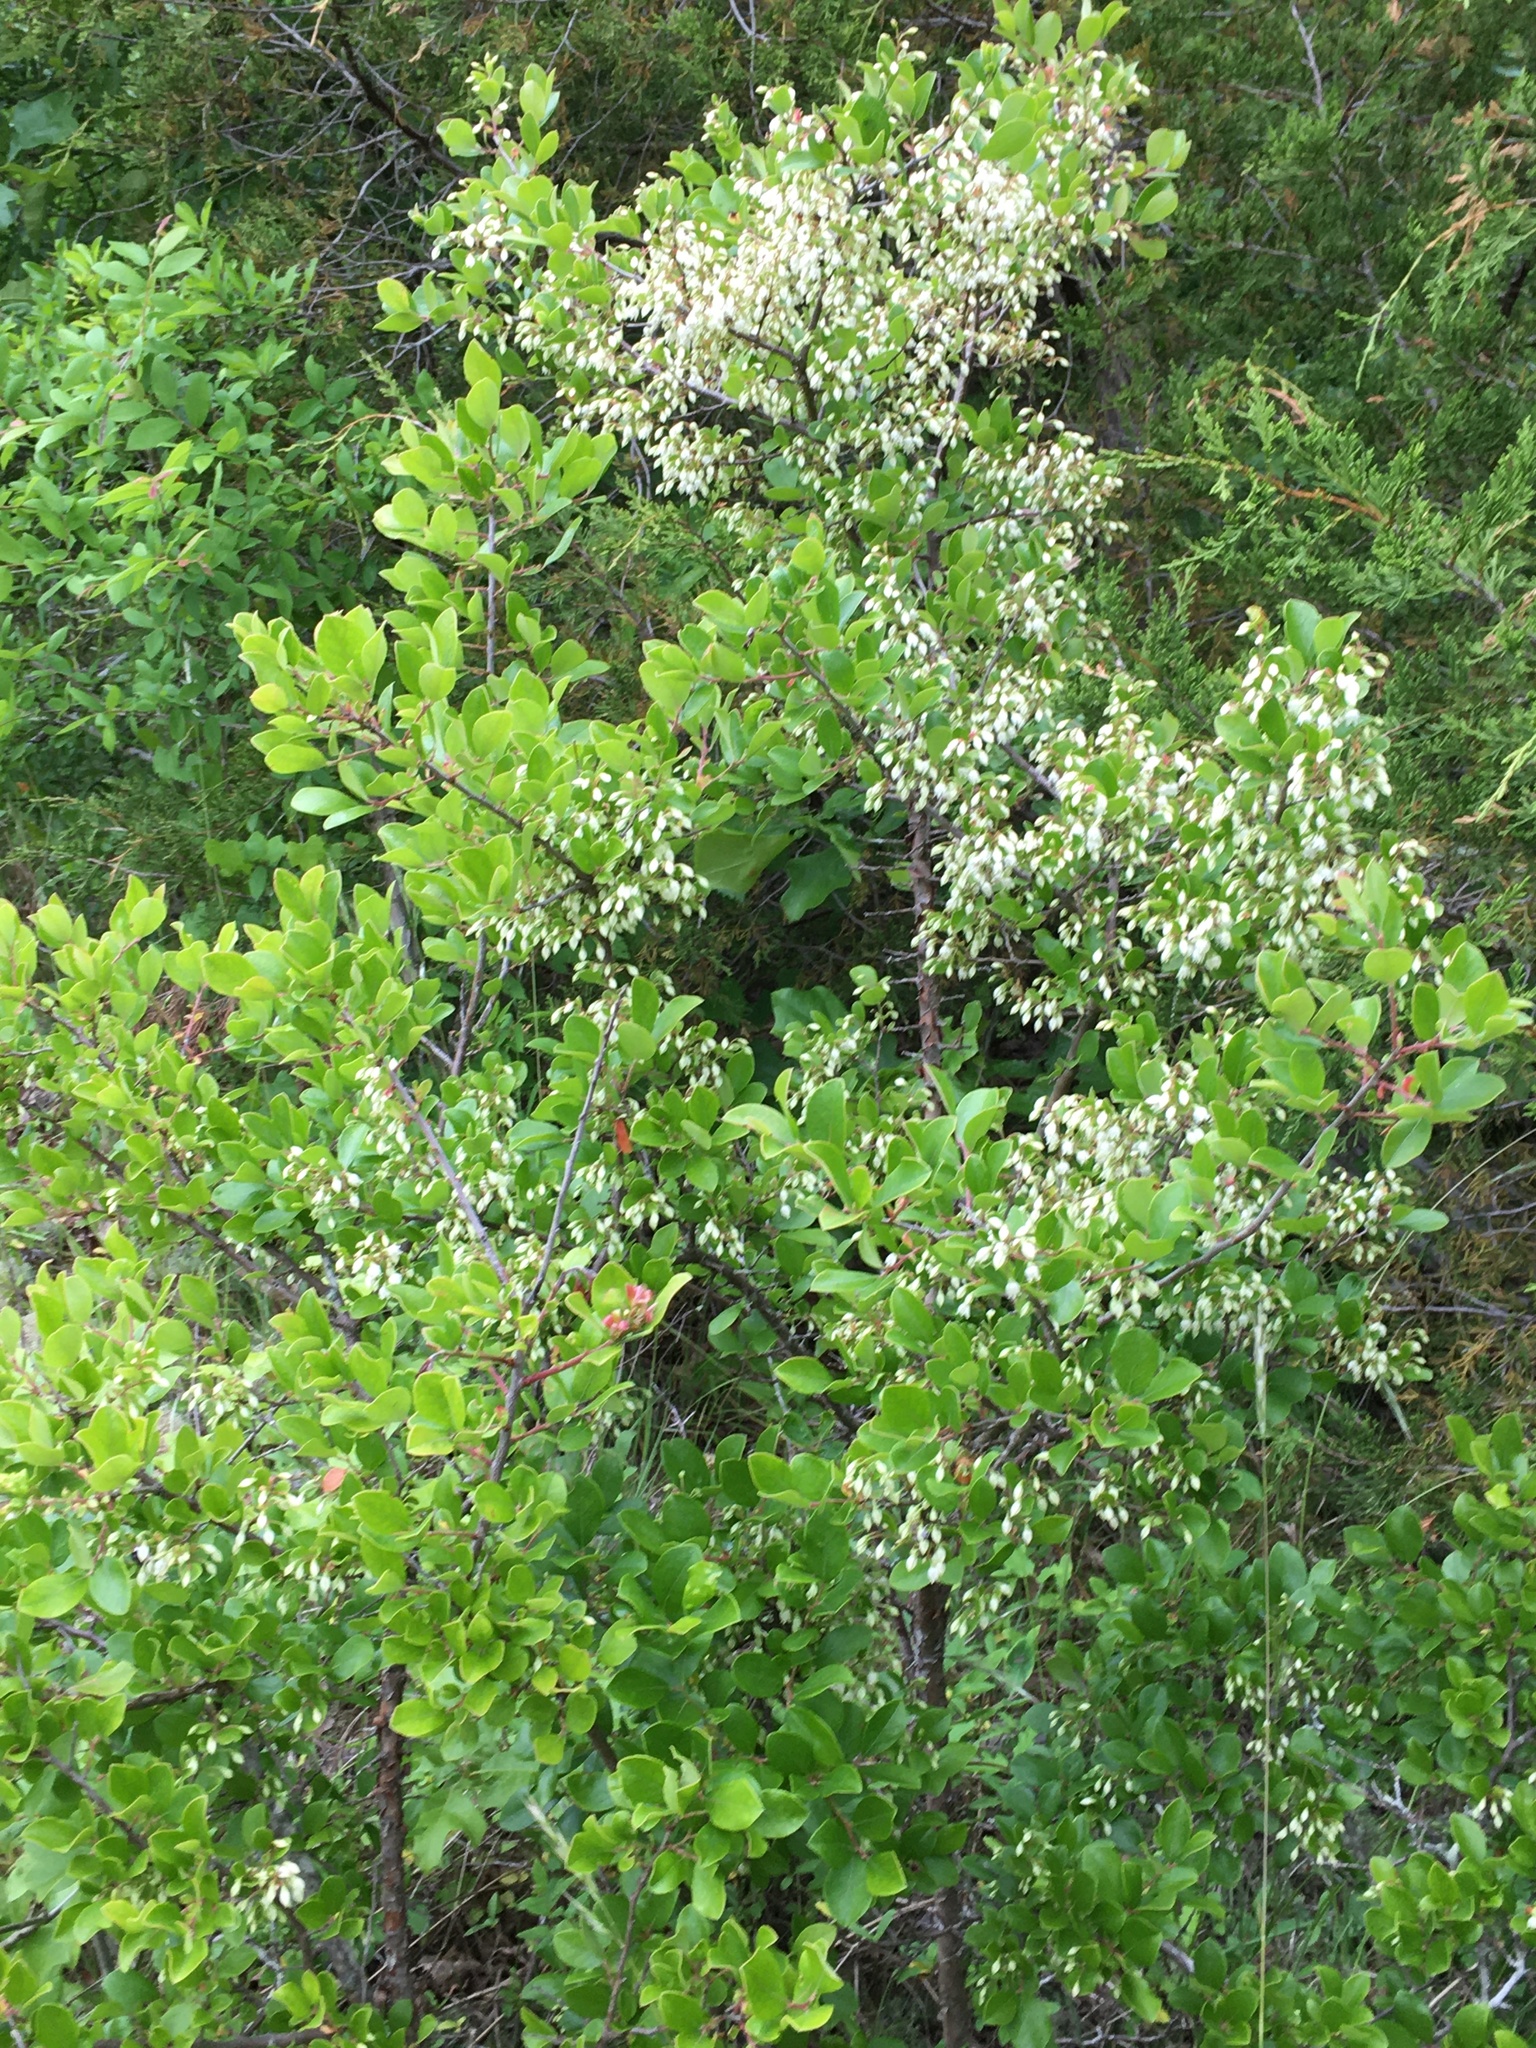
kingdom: Plantae
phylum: Tracheophyta
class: Magnoliopsida
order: Ericales
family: Ericaceae
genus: Vaccinium
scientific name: Vaccinium arboreum
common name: Farkleberry
